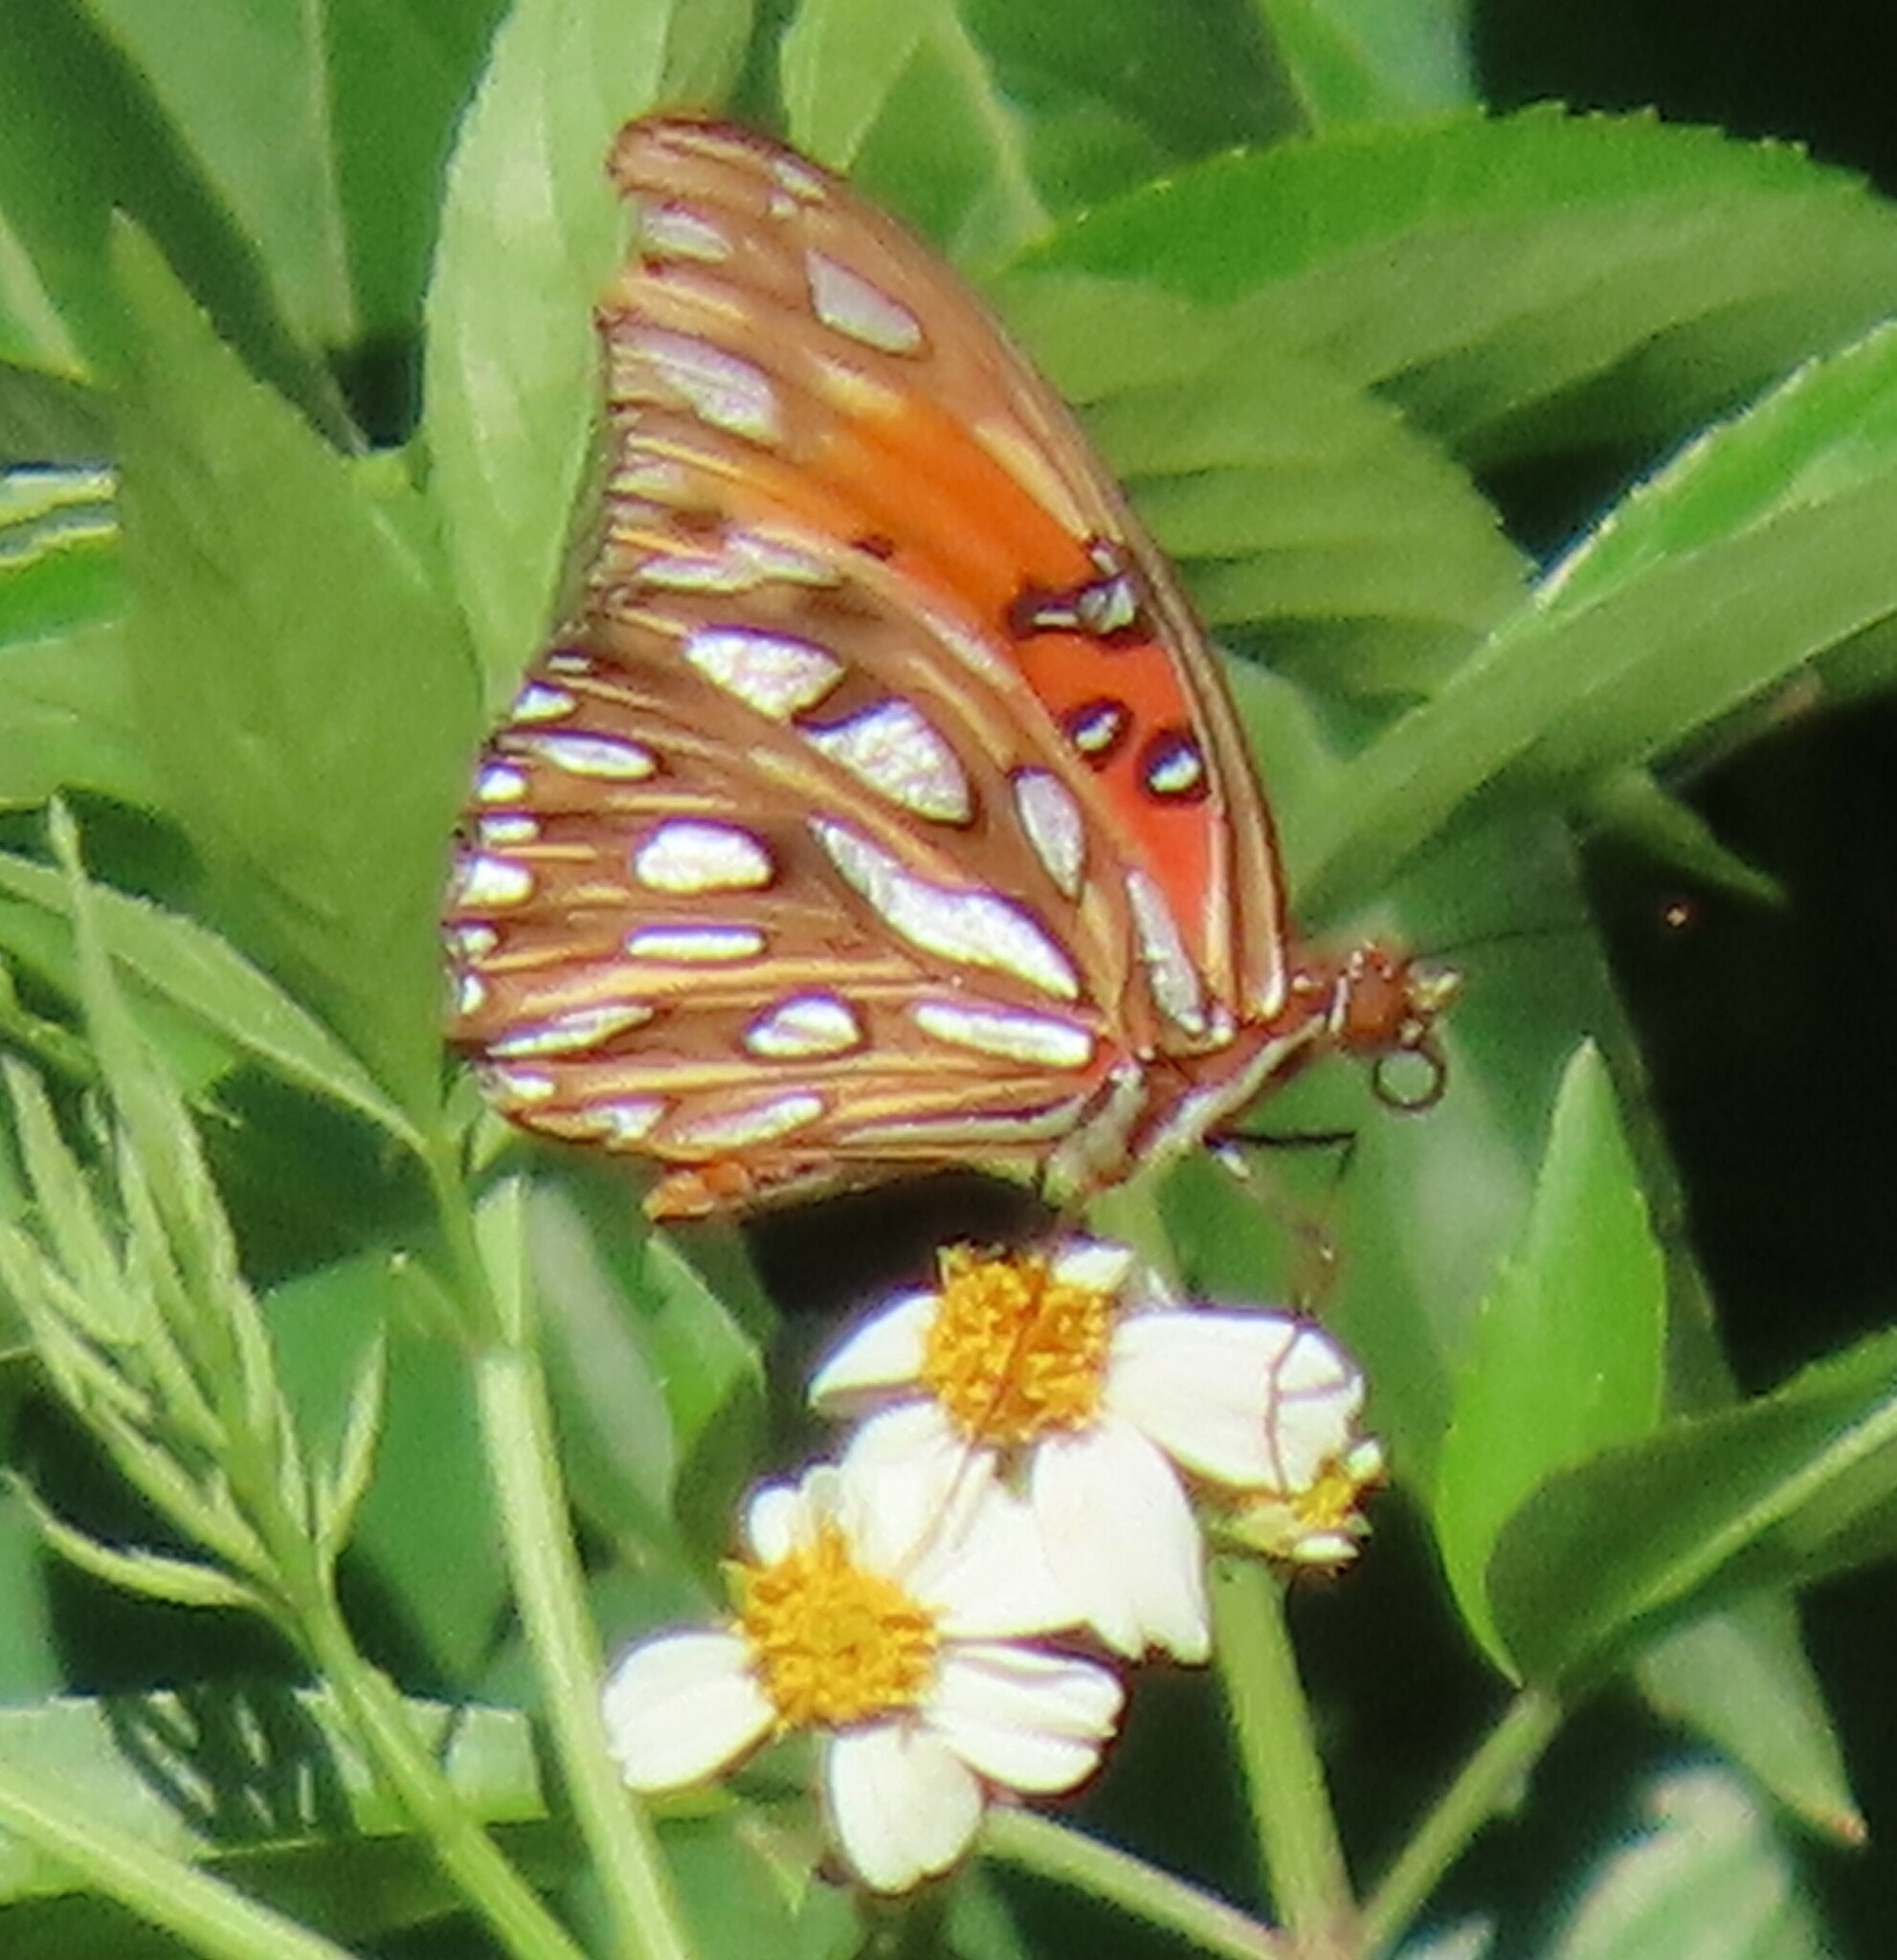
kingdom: Animalia
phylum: Arthropoda
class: Insecta
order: Lepidoptera
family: Nymphalidae
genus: Dione
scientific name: Dione vanillae
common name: Gulf fritillary
